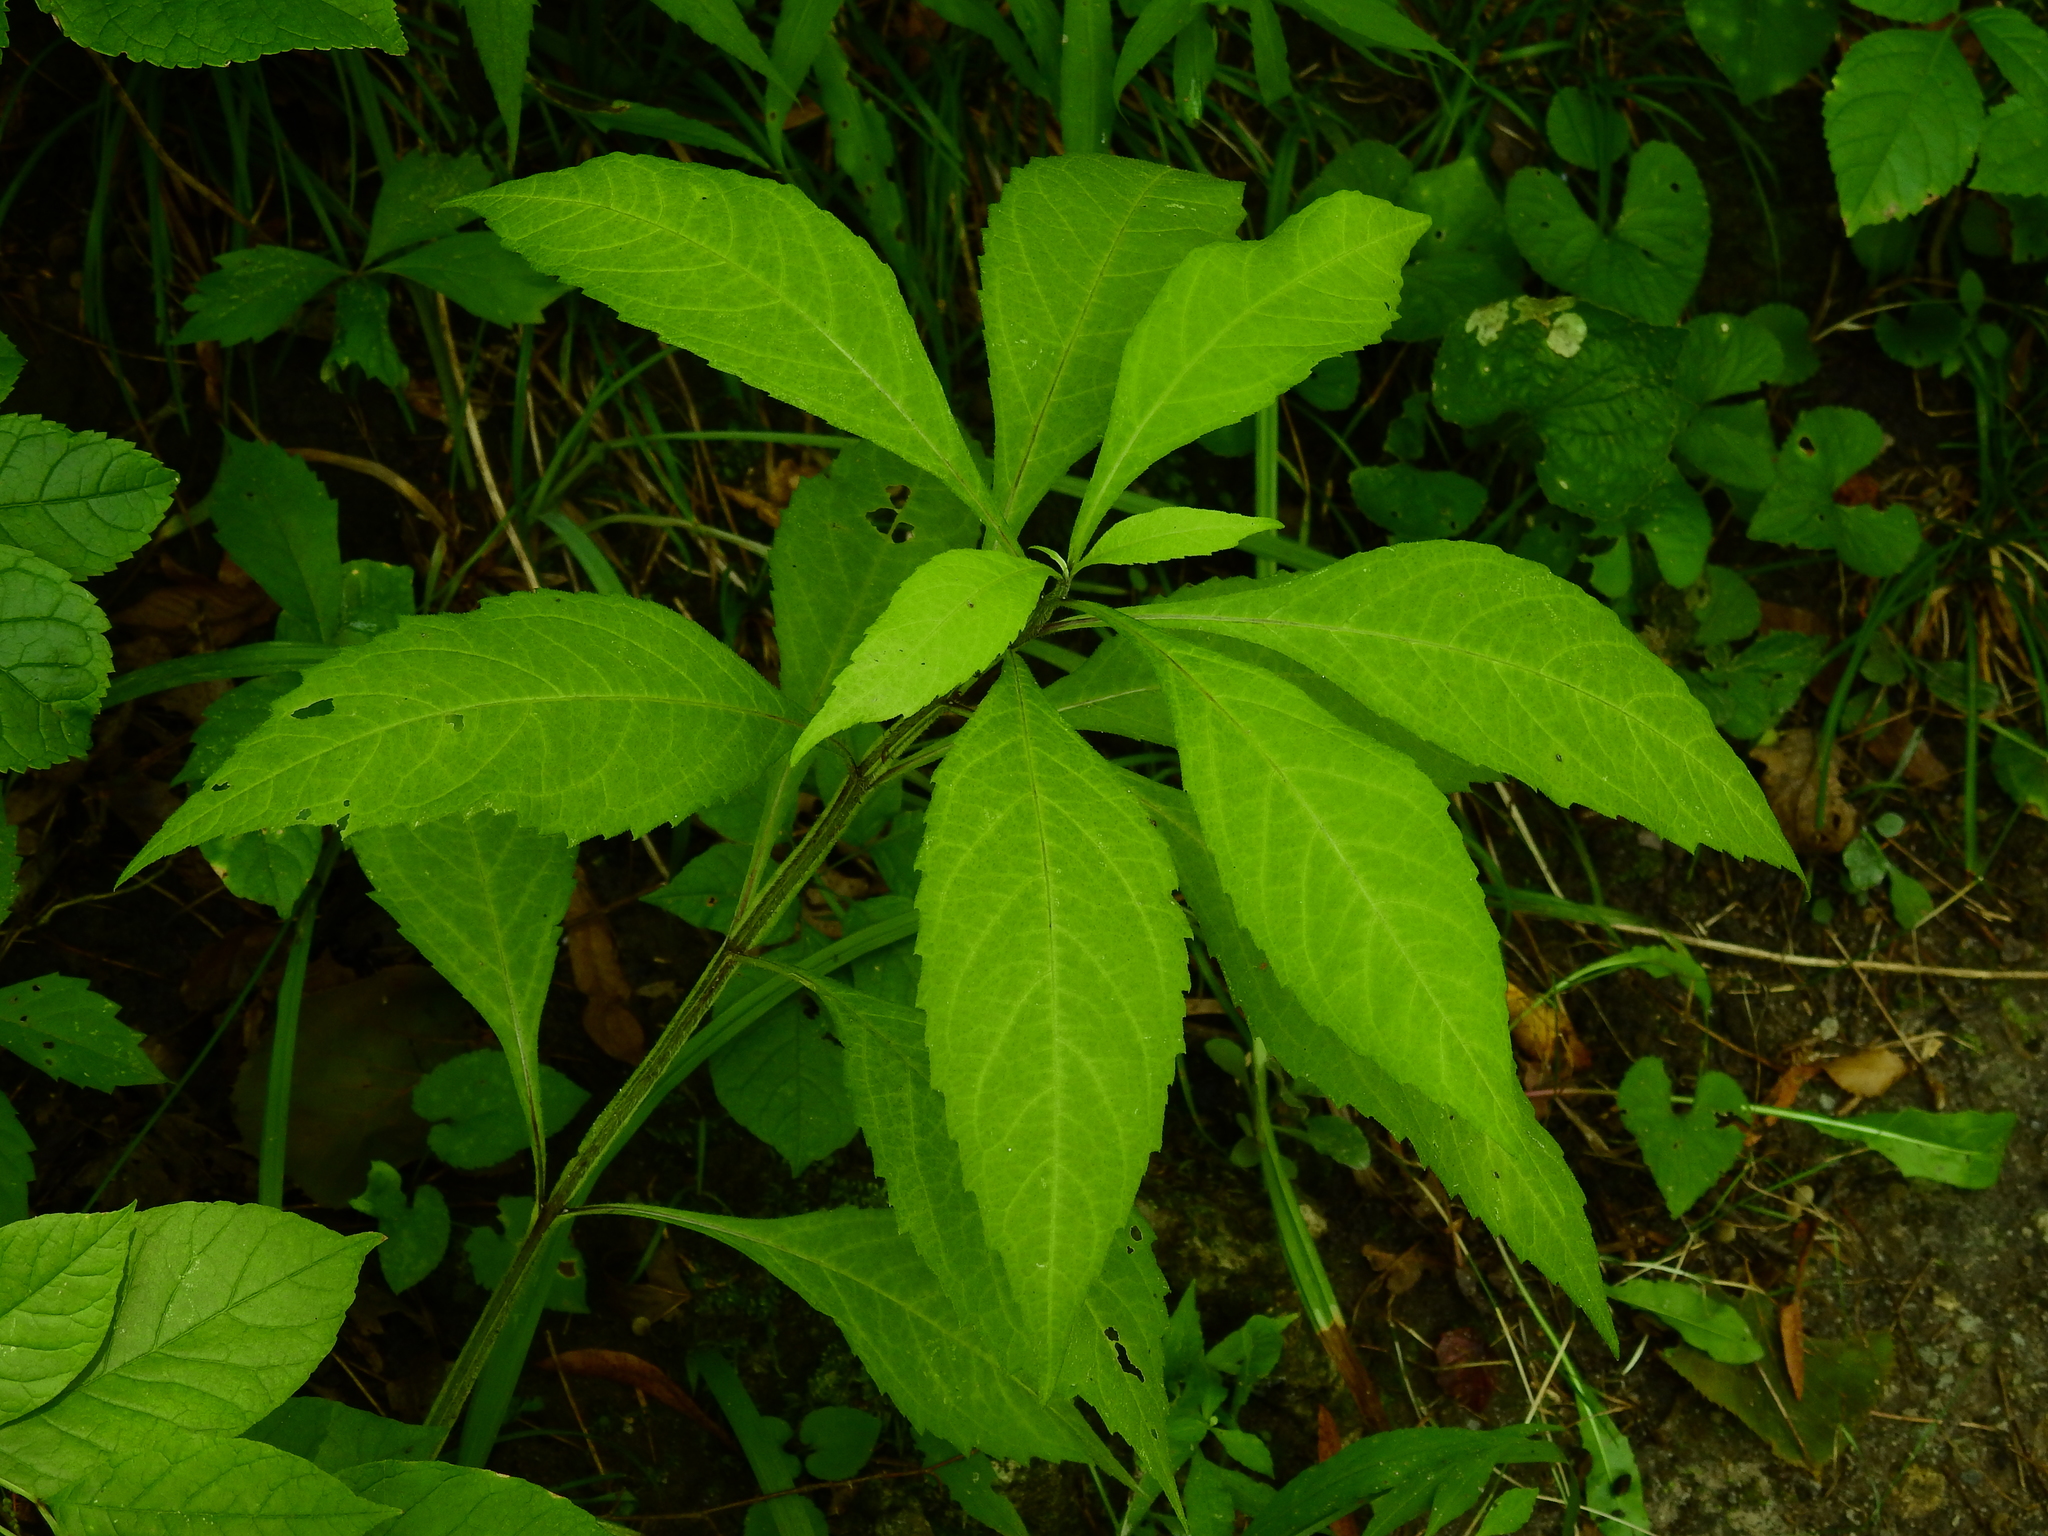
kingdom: Plantae
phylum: Tracheophyta
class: Magnoliopsida
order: Asterales
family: Asteraceae
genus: Verbesina
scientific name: Verbesina alternifolia
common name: Wingstem
